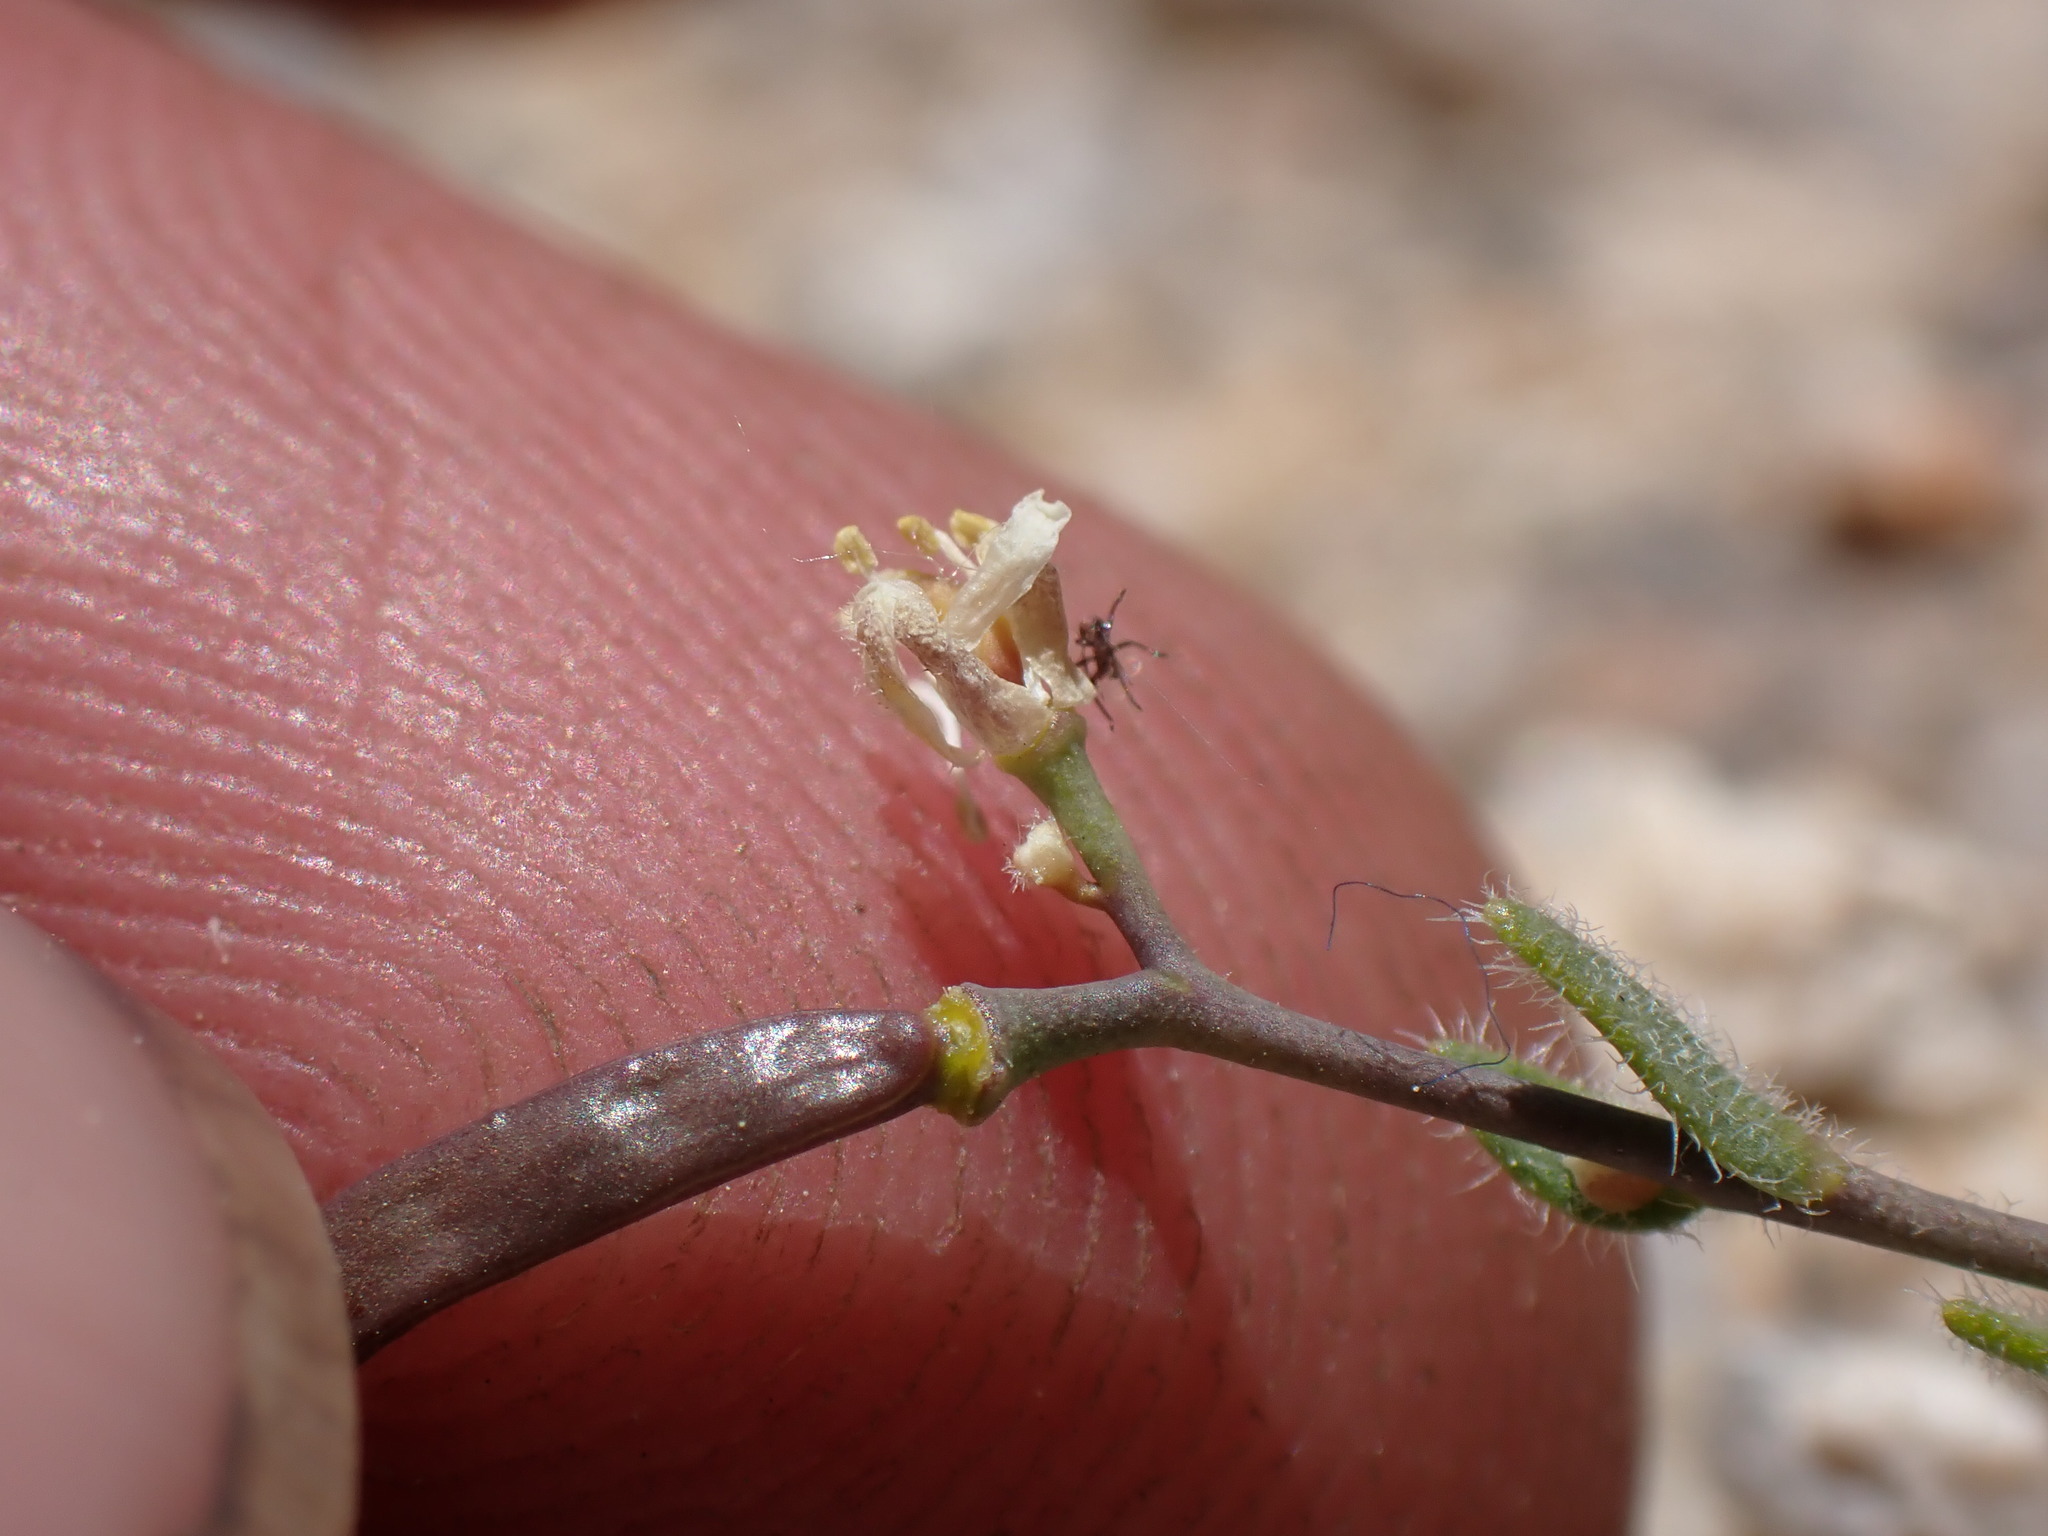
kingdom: Plantae
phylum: Tracheophyta
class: Magnoliopsida
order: Brassicales
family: Brassicaceae
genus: Boechera
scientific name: Boechera pygmaea
